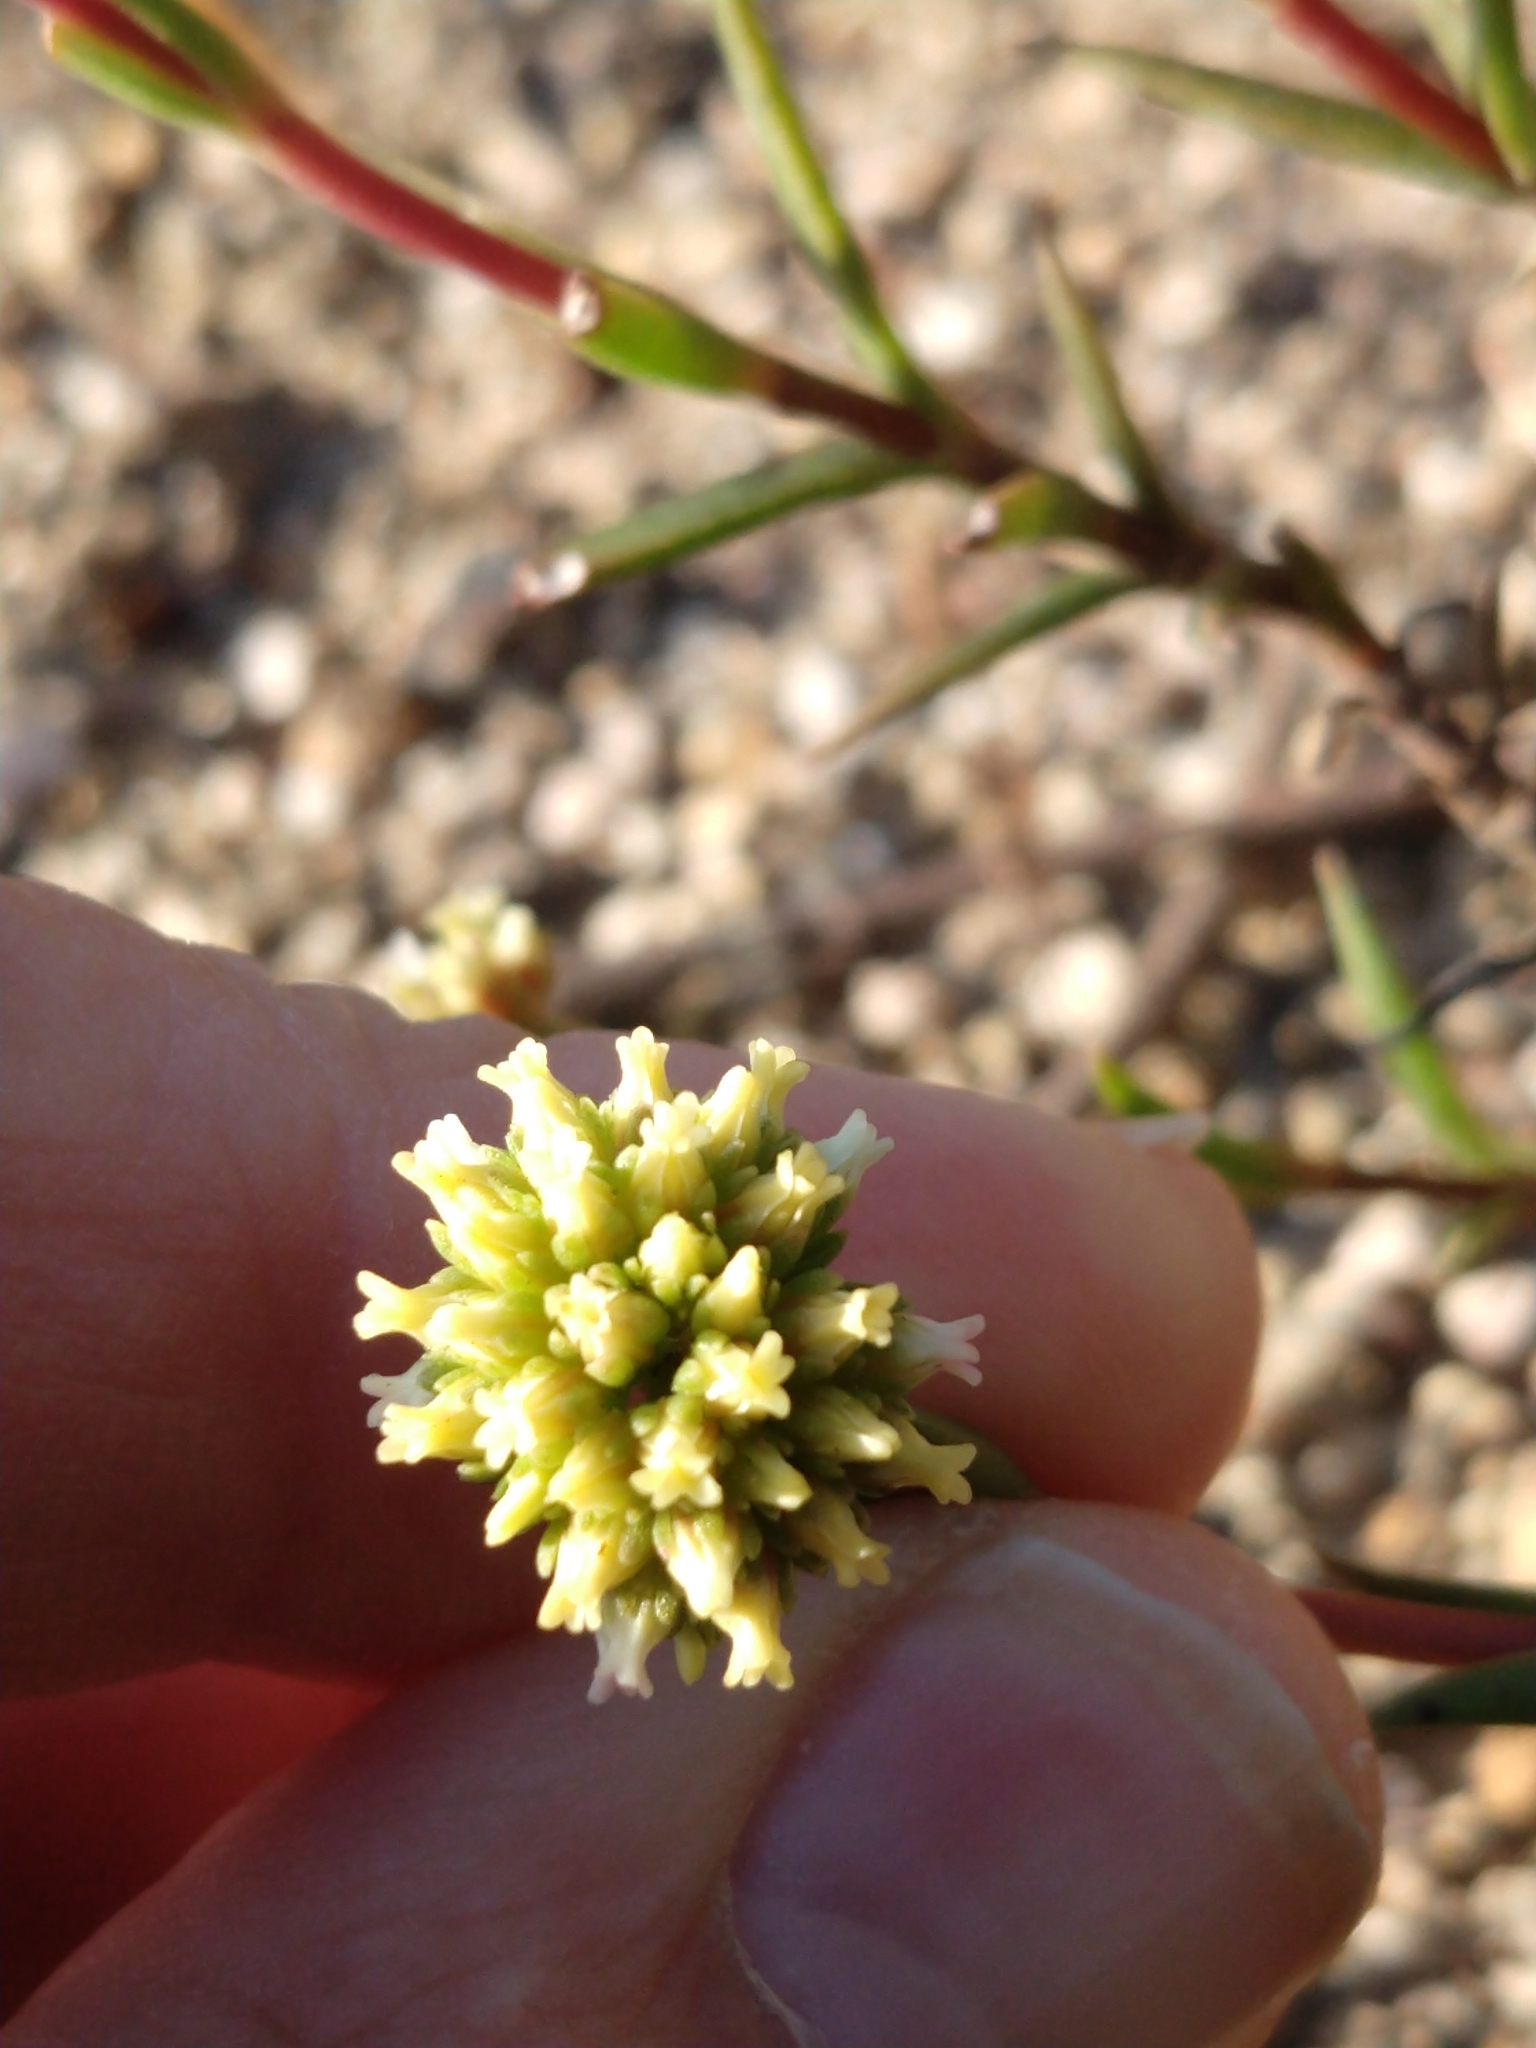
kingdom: Plantae
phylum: Tracheophyta
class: Magnoliopsida
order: Saxifragales
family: Crassulaceae
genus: Crassula
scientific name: Crassula subulata
